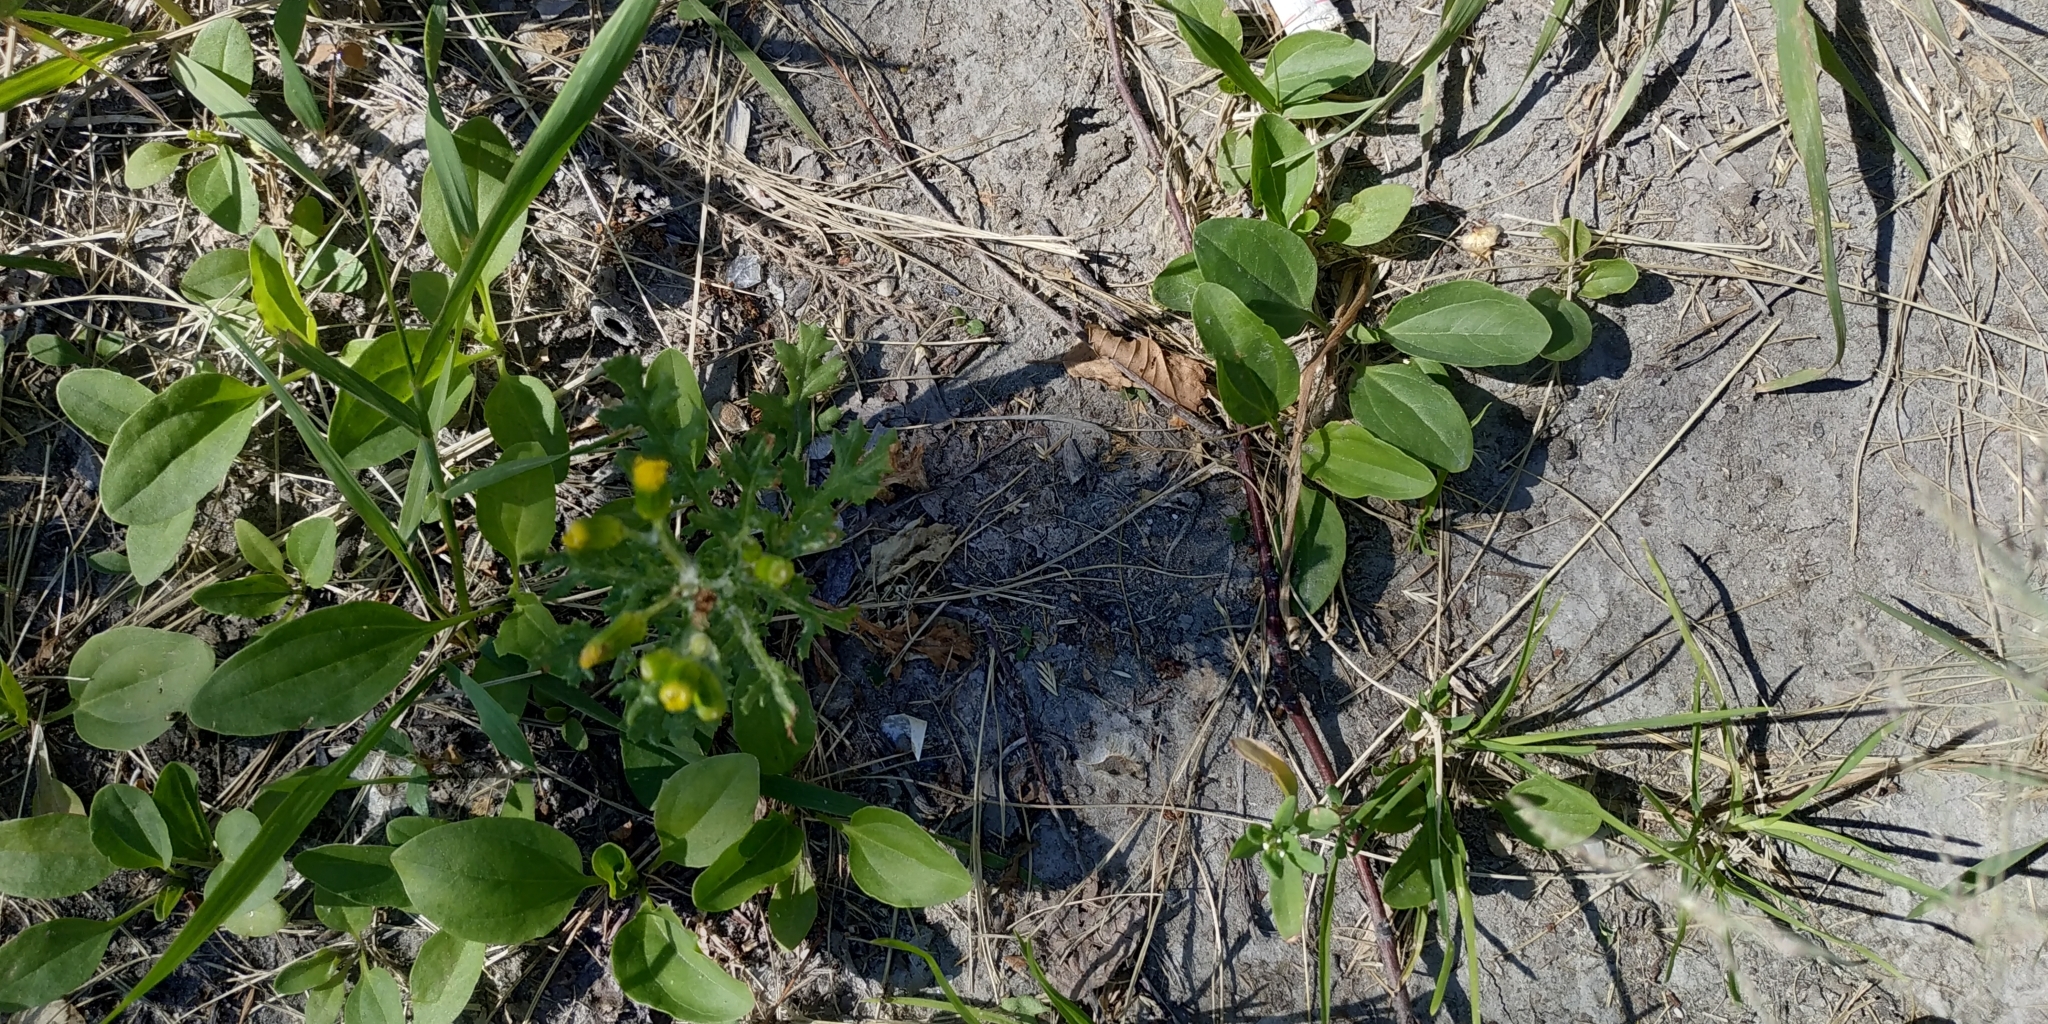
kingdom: Plantae
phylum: Tracheophyta
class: Magnoliopsida
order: Asterales
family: Asteraceae
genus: Senecio
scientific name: Senecio vulgaris
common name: Old-man-in-the-spring
